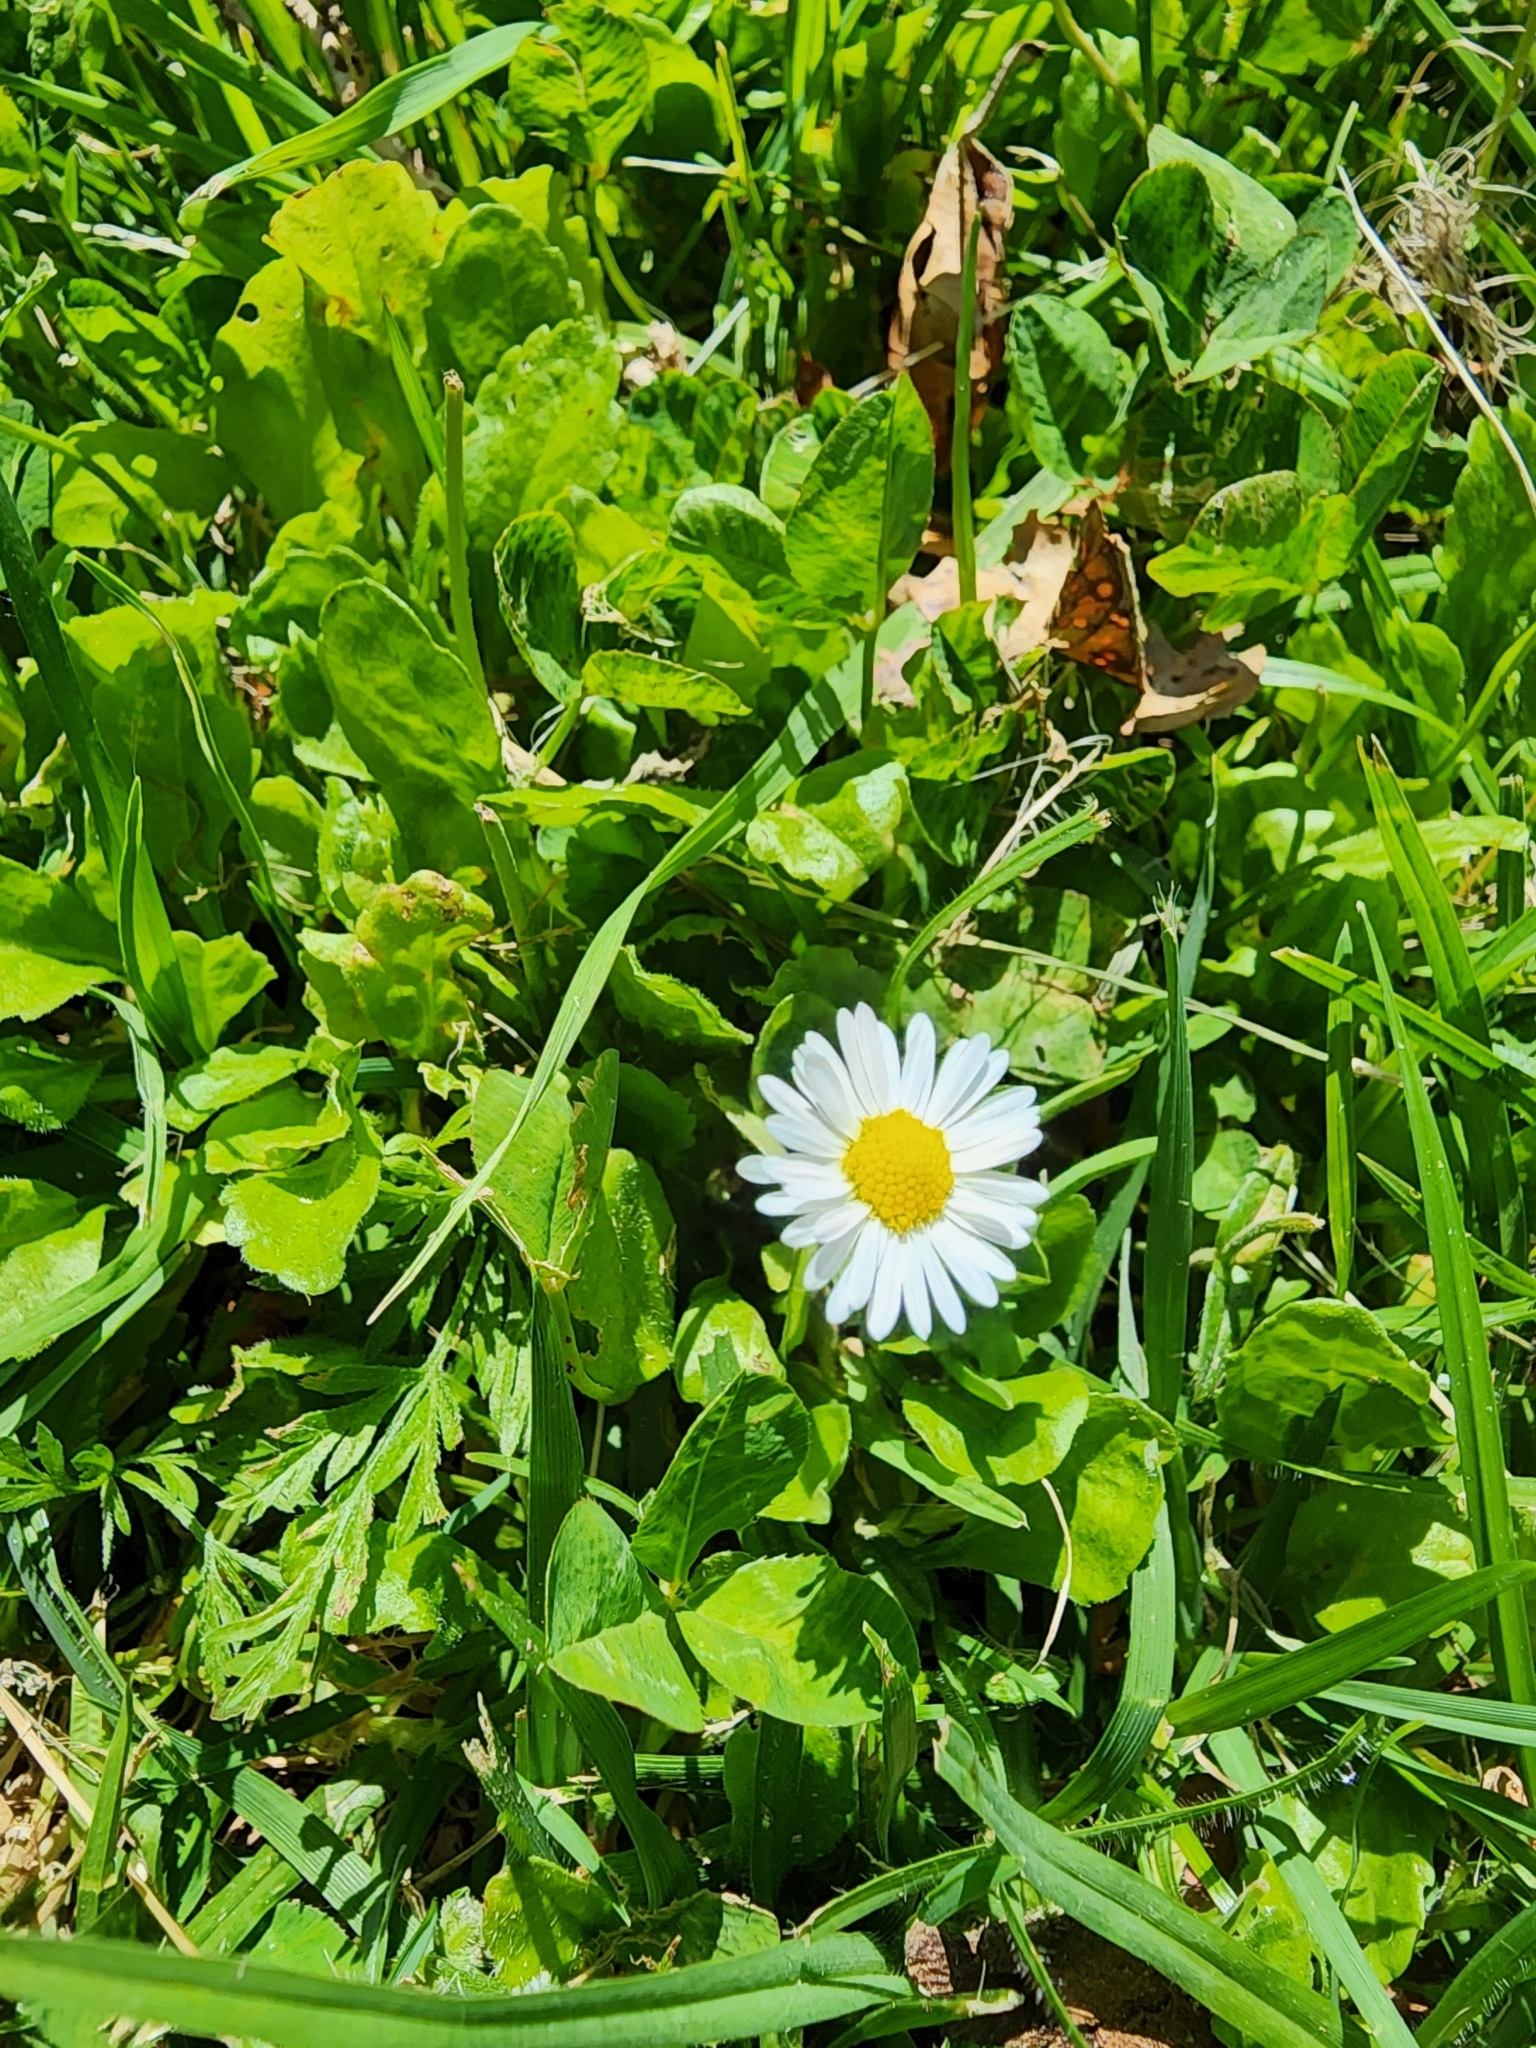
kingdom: Plantae
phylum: Tracheophyta
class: Magnoliopsida
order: Asterales
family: Asteraceae
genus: Bellis
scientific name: Bellis perennis
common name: Lawndaisy
